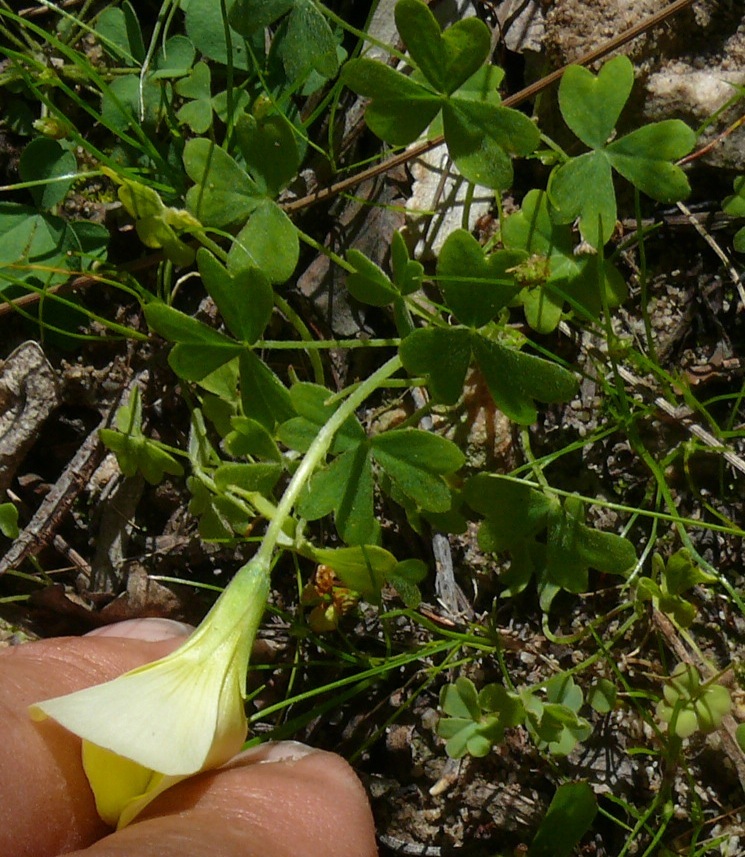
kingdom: Plantae
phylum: Tracheophyta
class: Magnoliopsida
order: Oxalidales
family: Oxalidaceae
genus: Oxalis
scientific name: Oxalis obtusa
